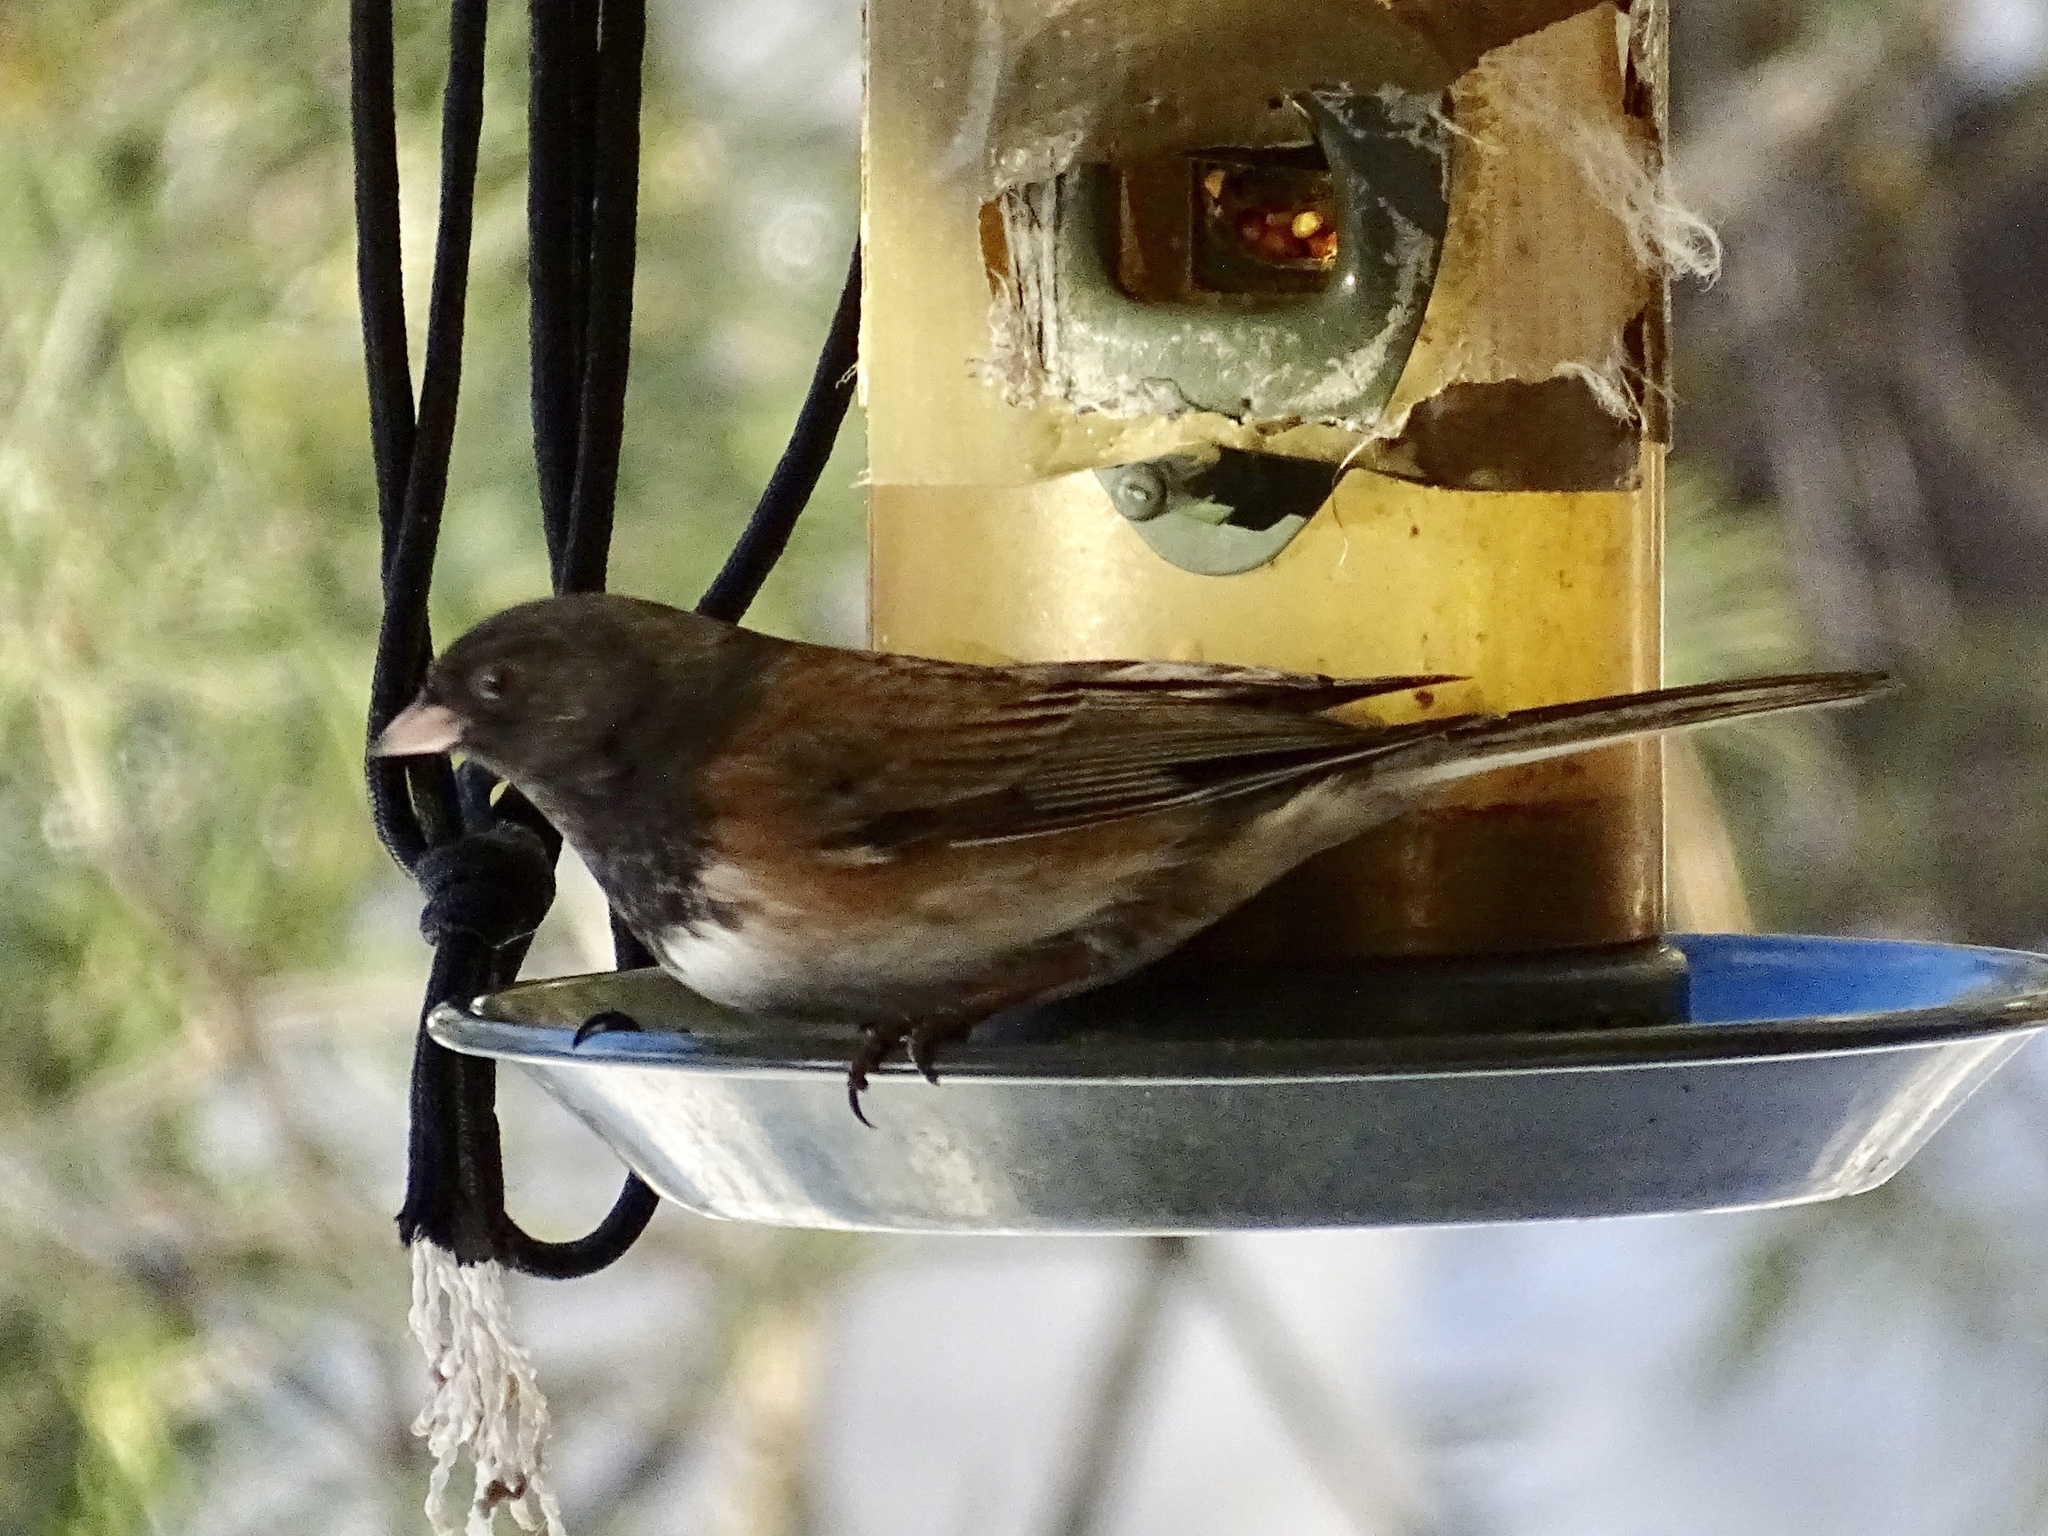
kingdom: Animalia
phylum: Chordata
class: Aves
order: Passeriformes
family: Passerellidae
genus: Junco
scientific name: Junco hyemalis
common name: Dark-eyed junco
